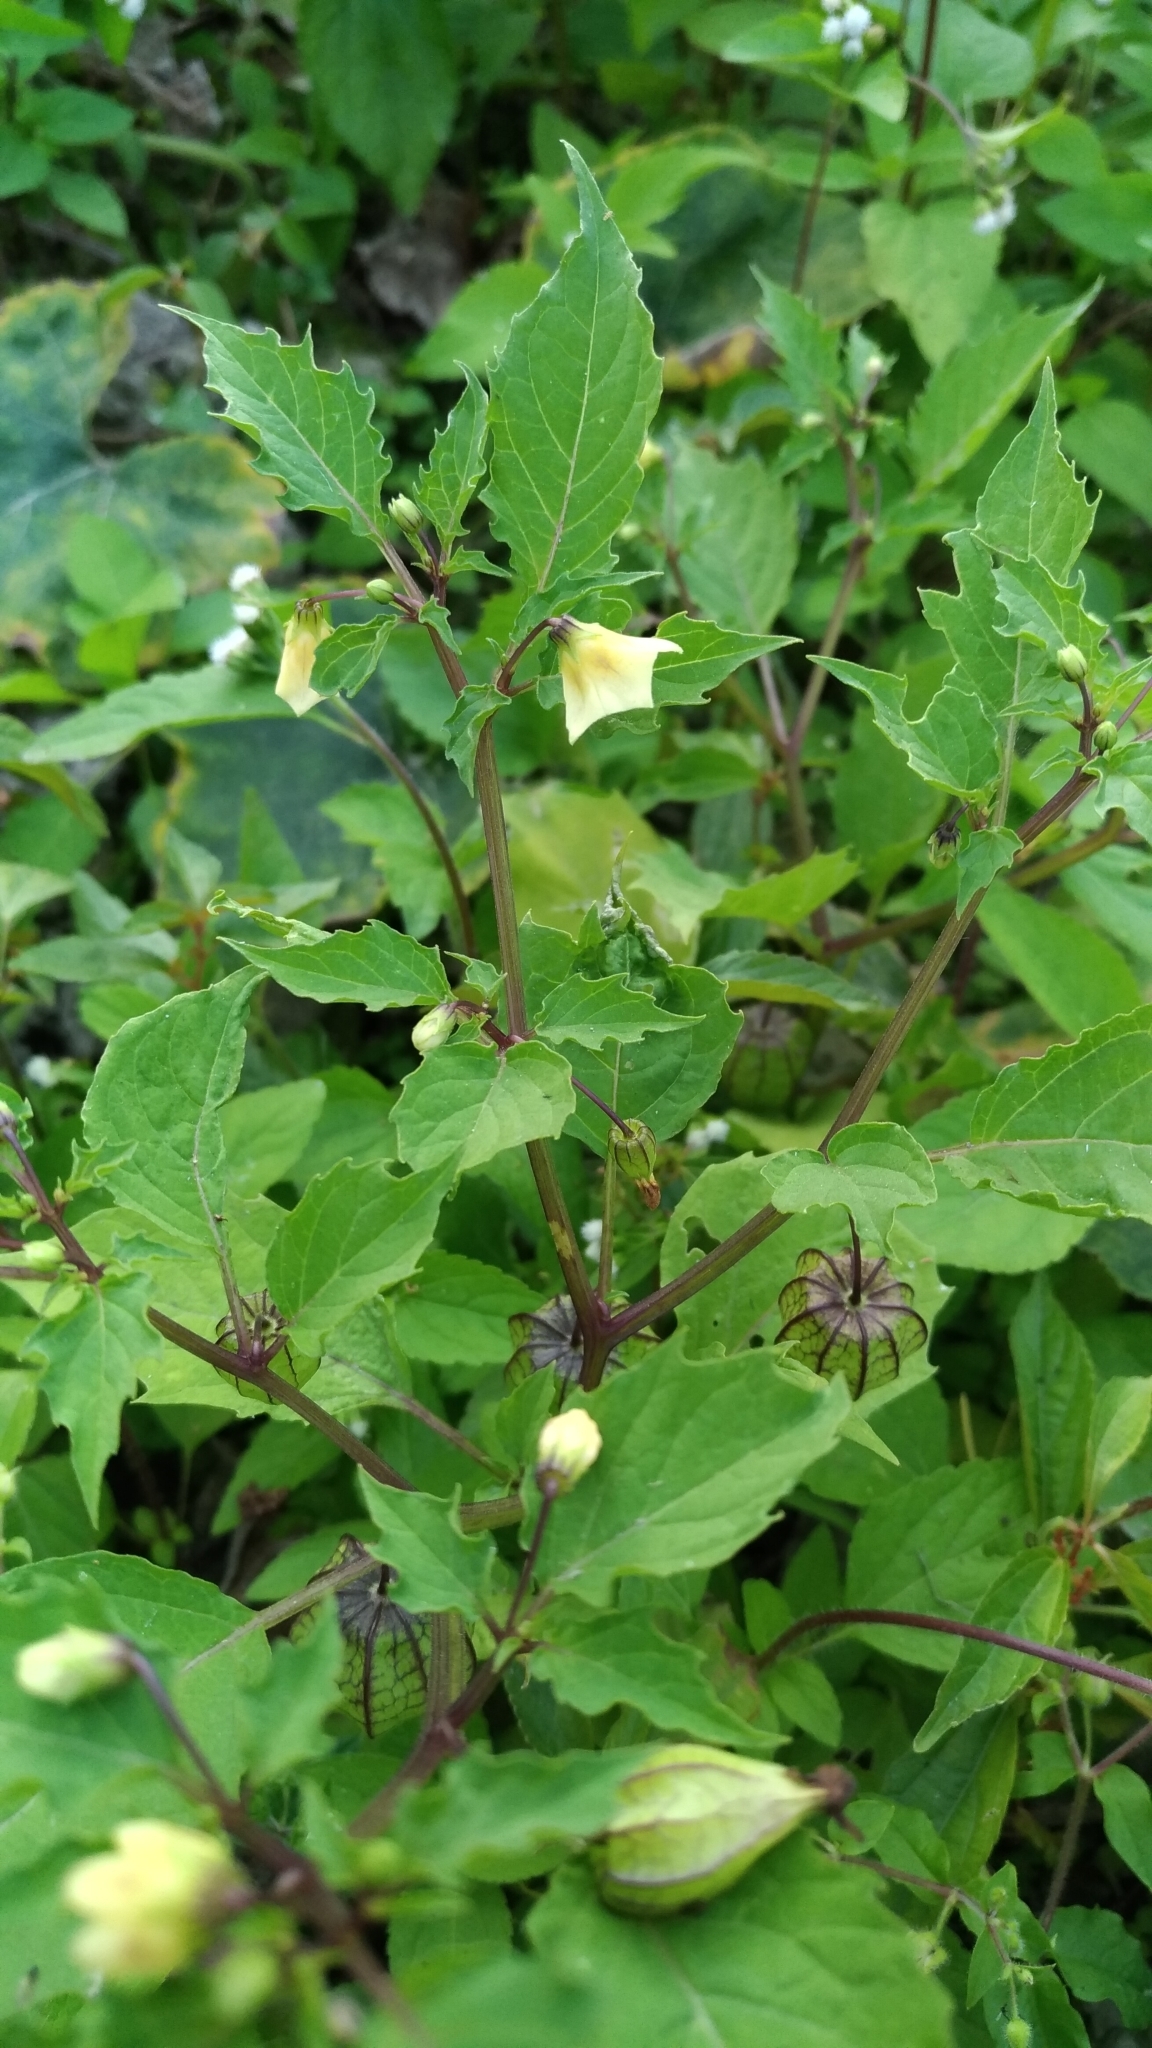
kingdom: Plantae
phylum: Tracheophyta
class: Magnoliopsida
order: Solanales
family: Solanaceae
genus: Physalis
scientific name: Physalis angulata
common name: Angular winter-cherry
